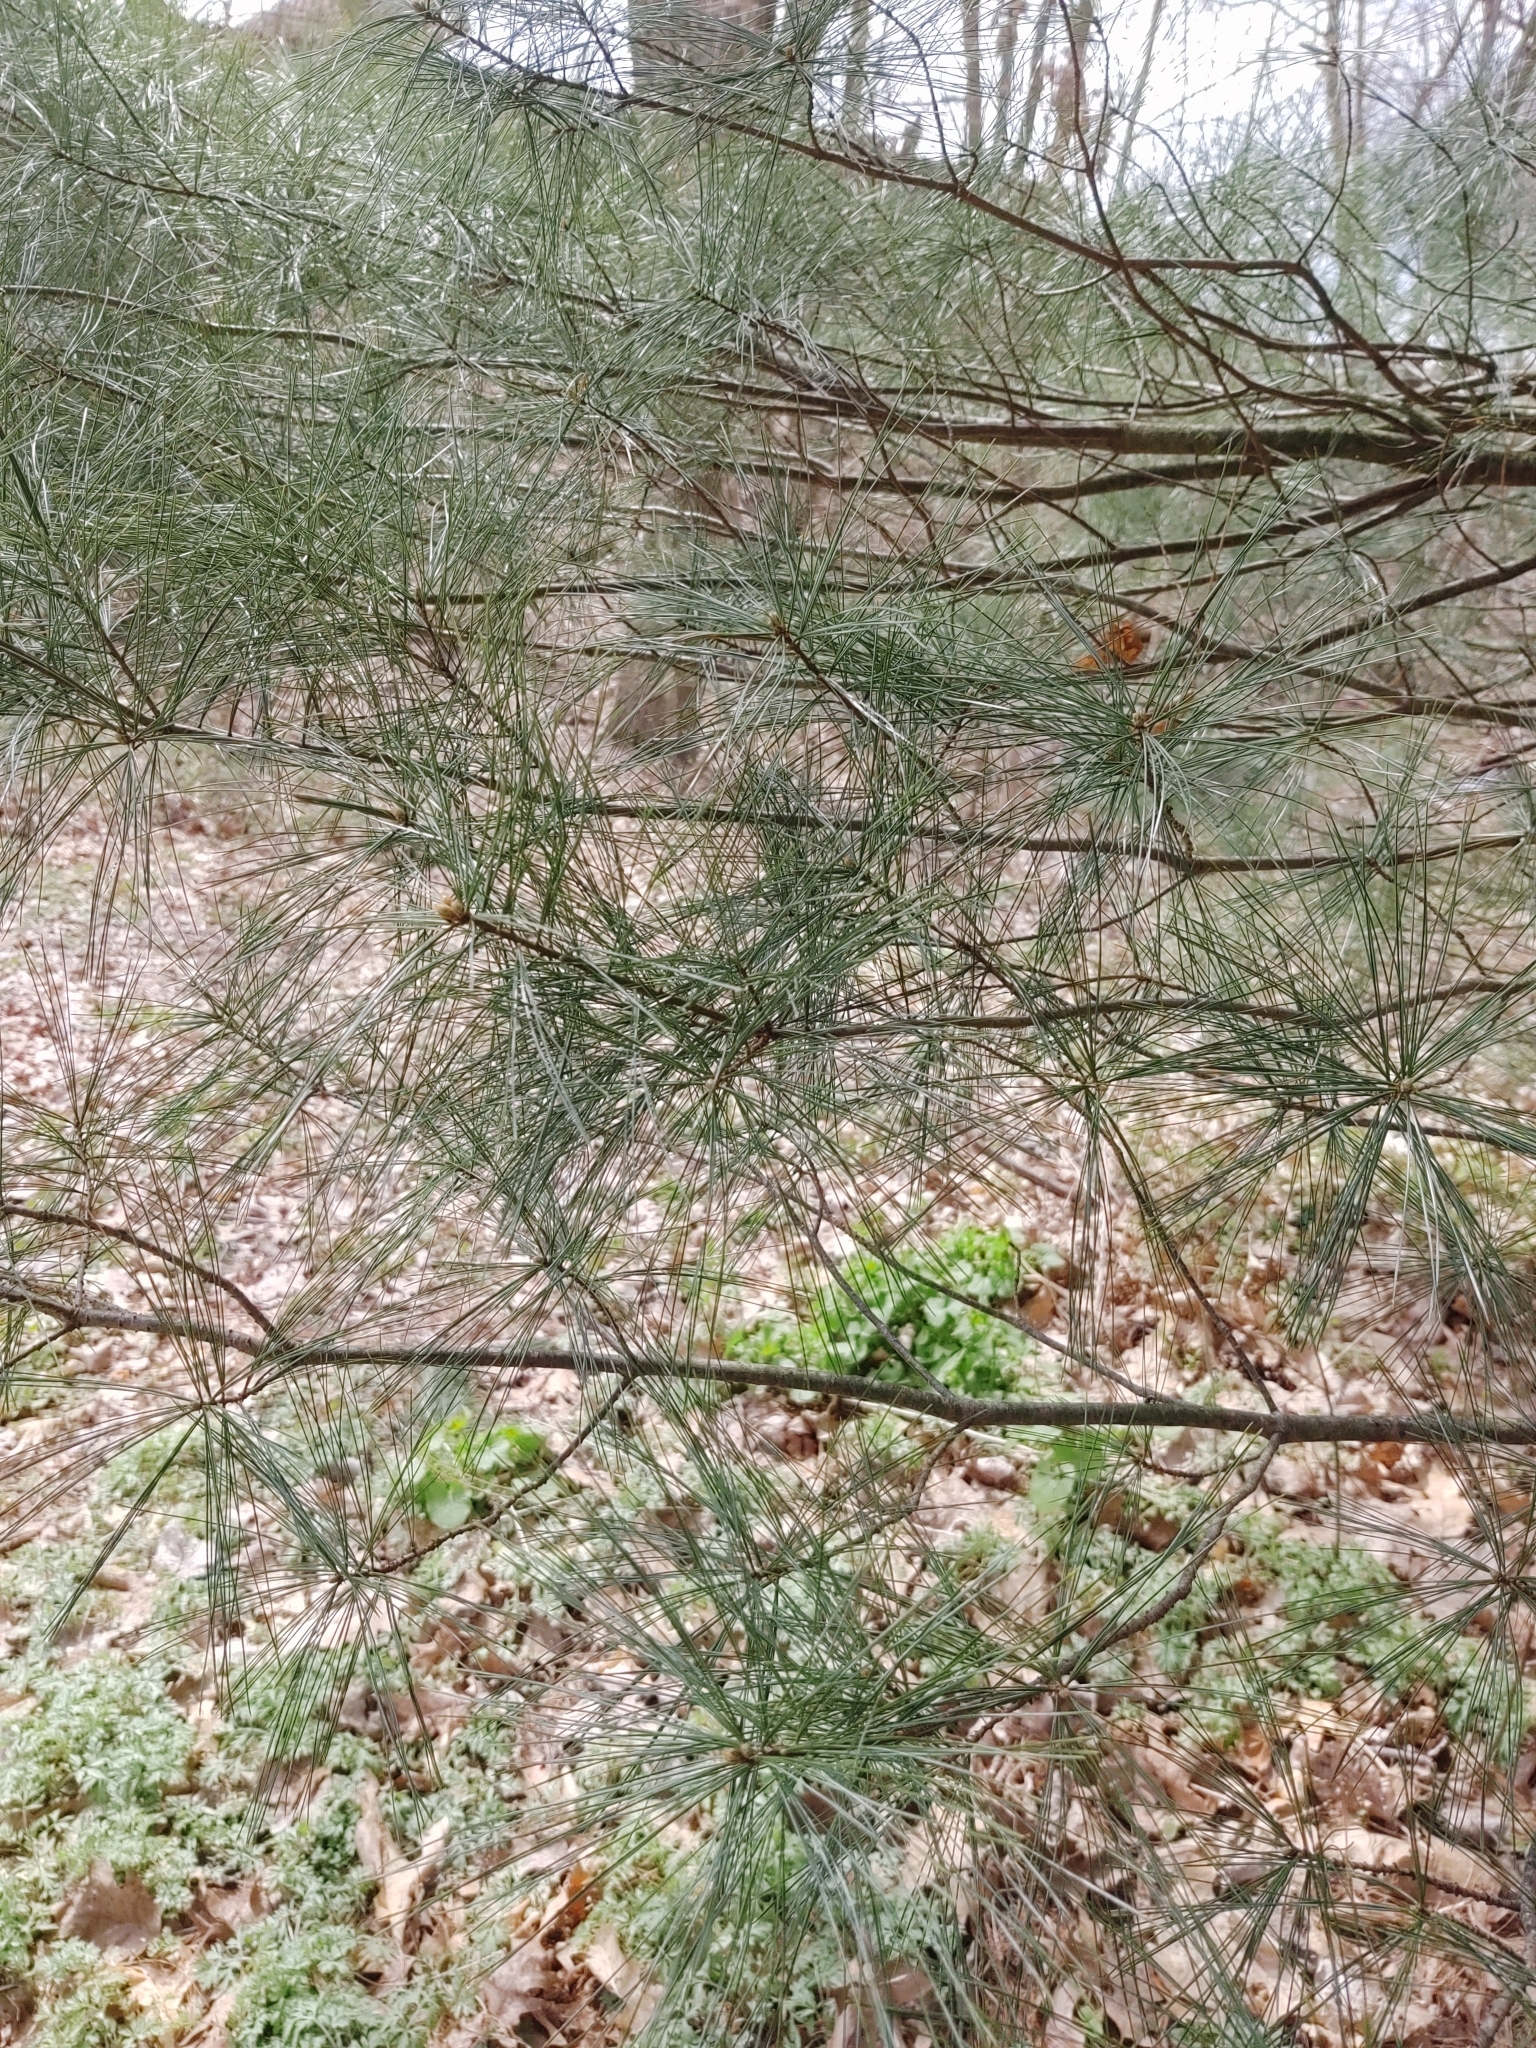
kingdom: Plantae
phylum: Tracheophyta
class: Pinopsida
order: Pinales
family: Pinaceae
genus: Pinus
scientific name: Pinus strobus
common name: Weymouth pine
